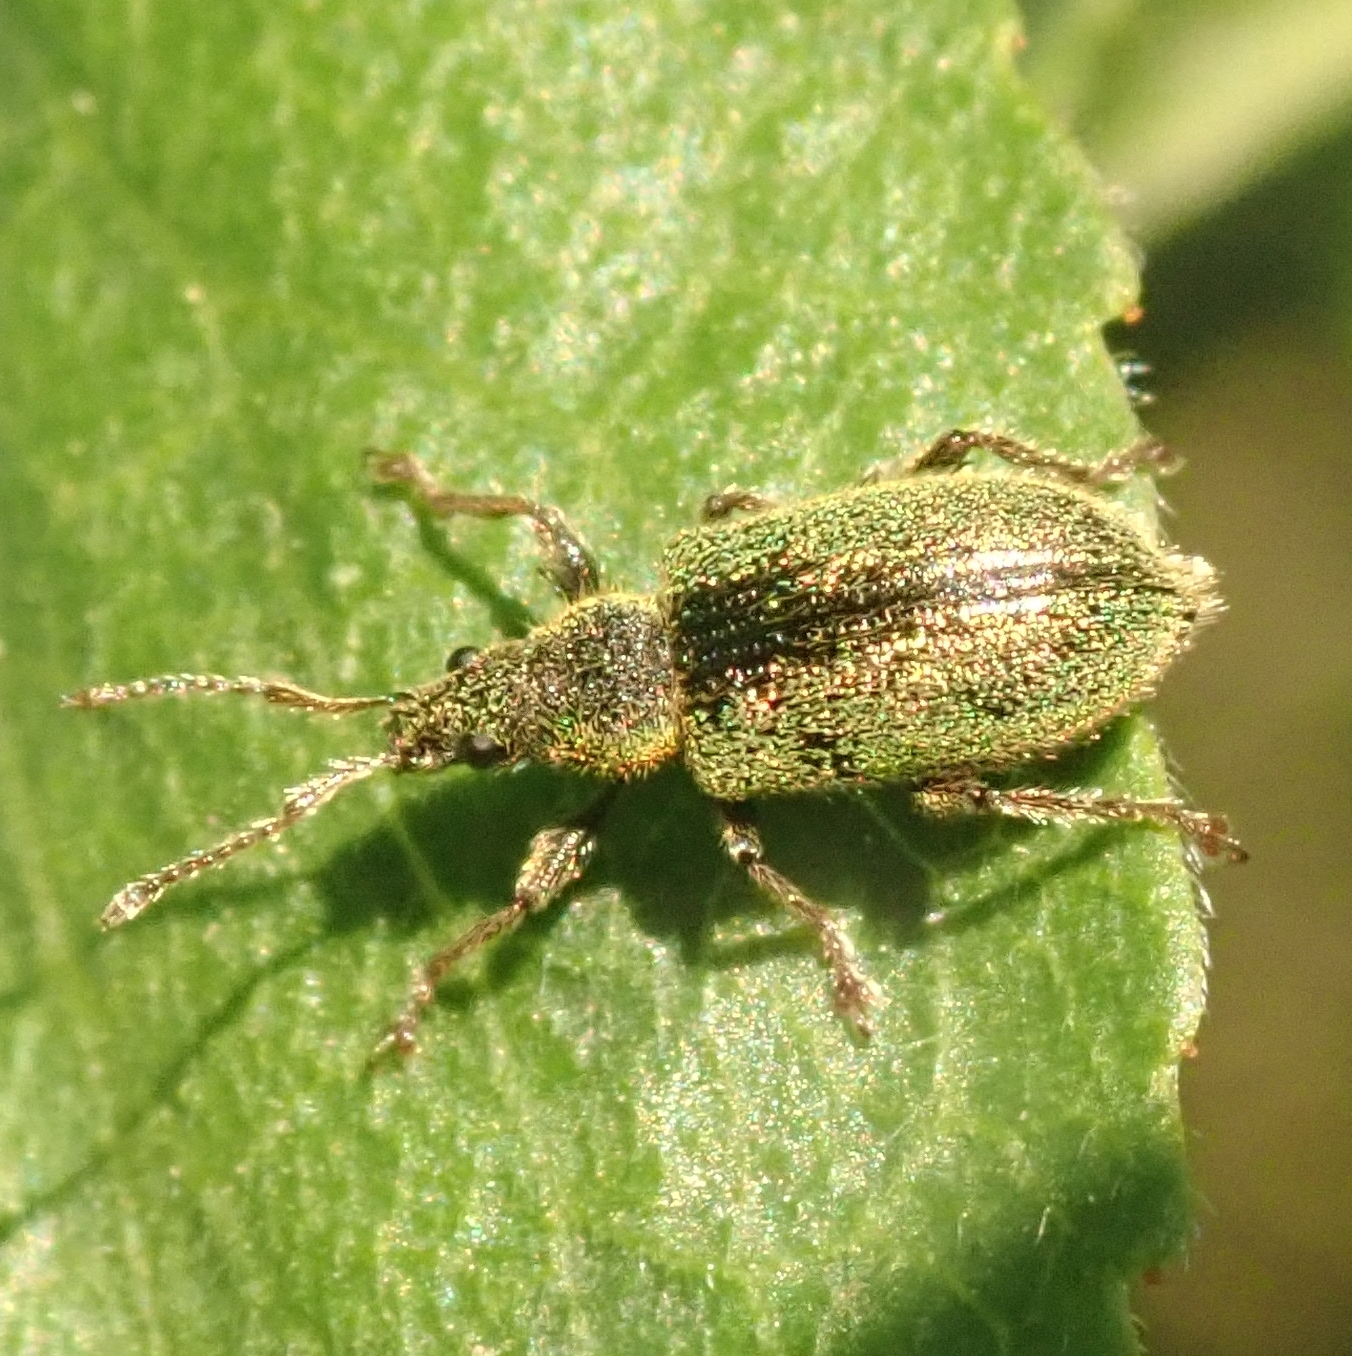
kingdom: Animalia
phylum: Arthropoda
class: Insecta
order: Coleoptera
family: Curculionidae
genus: Phyllobius
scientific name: Phyllobius betulinus
